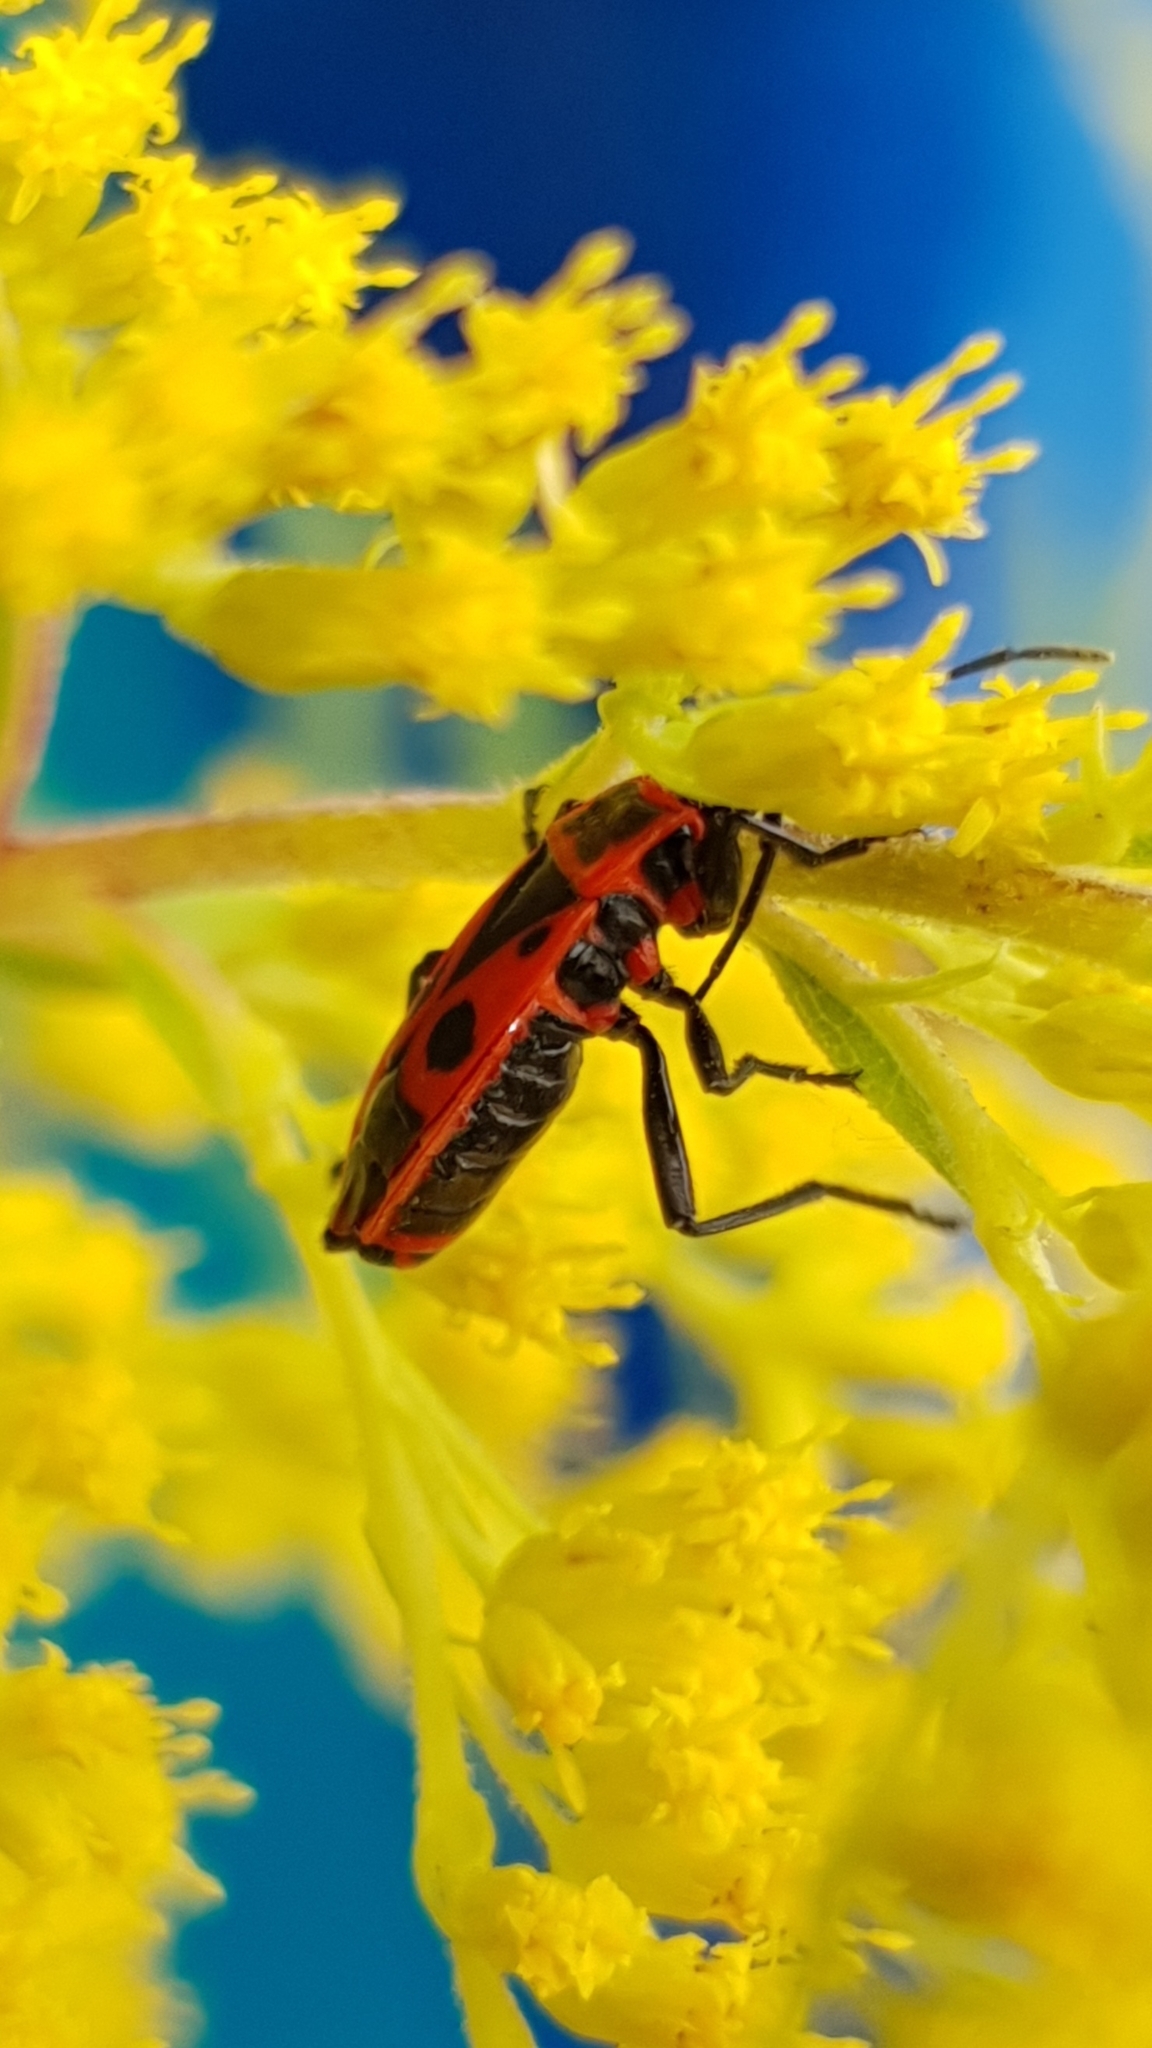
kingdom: Animalia
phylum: Arthropoda
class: Insecta
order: Hemiptera
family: Pyrrhocoridae
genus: Pyrrhocoris
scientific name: Pyrrhocoris apterus
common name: Firebug
